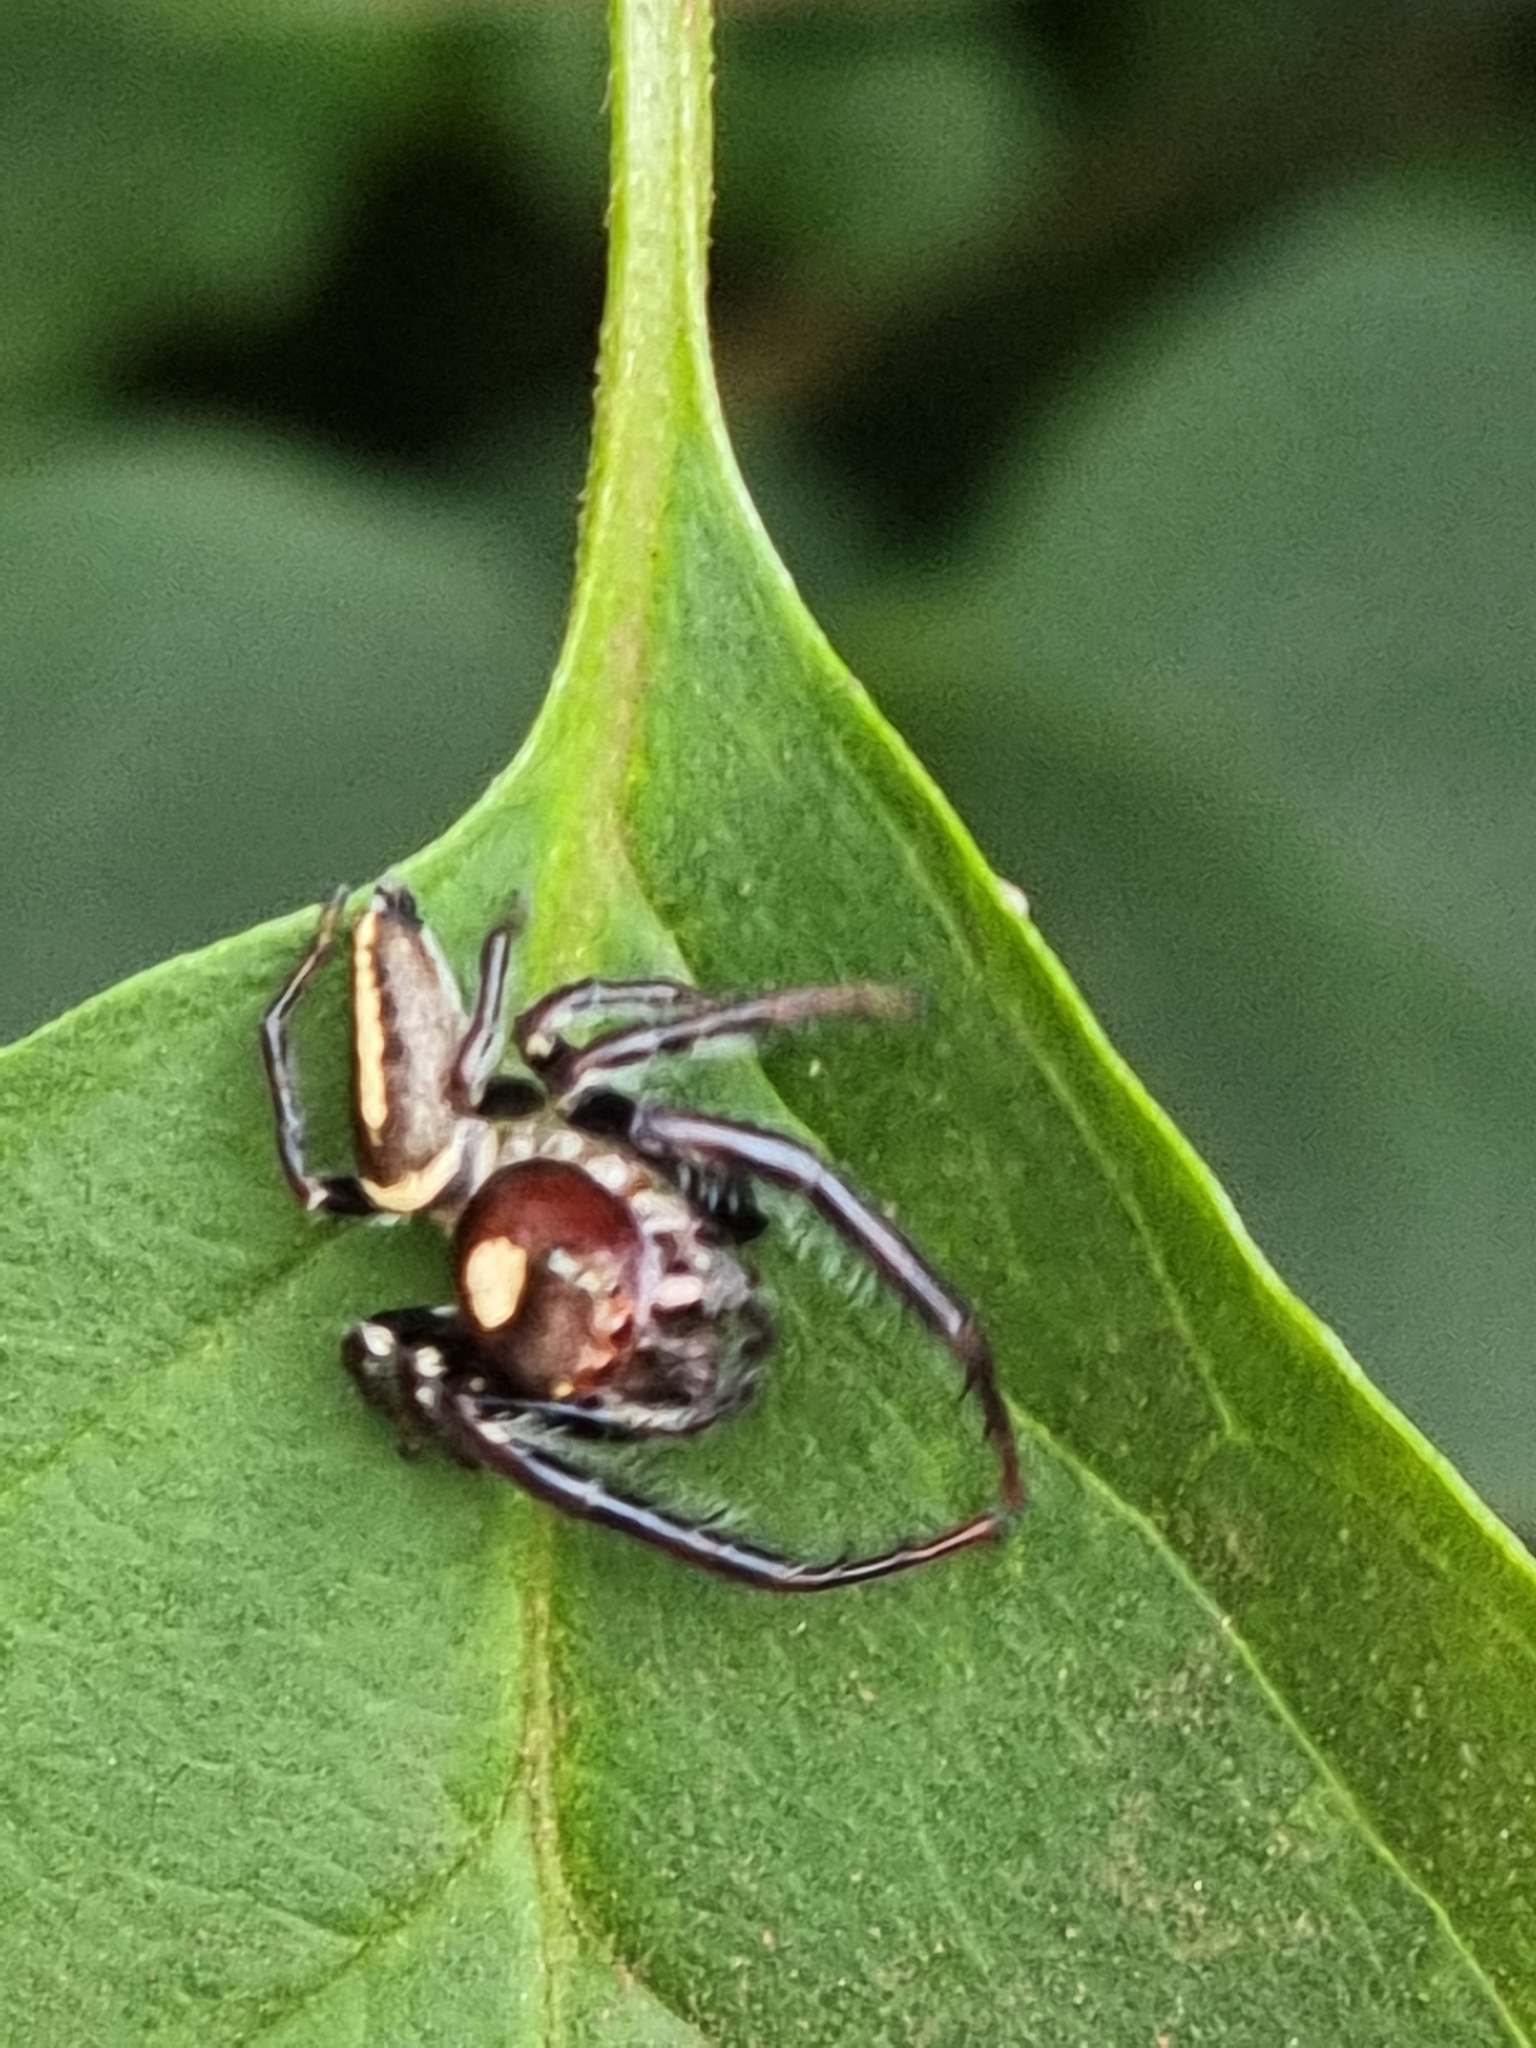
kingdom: Animalia
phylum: Arthropoda
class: Arachnida
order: Araneae
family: Salticidae
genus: Opisthoncus
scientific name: Opisthoncus quadratarius
